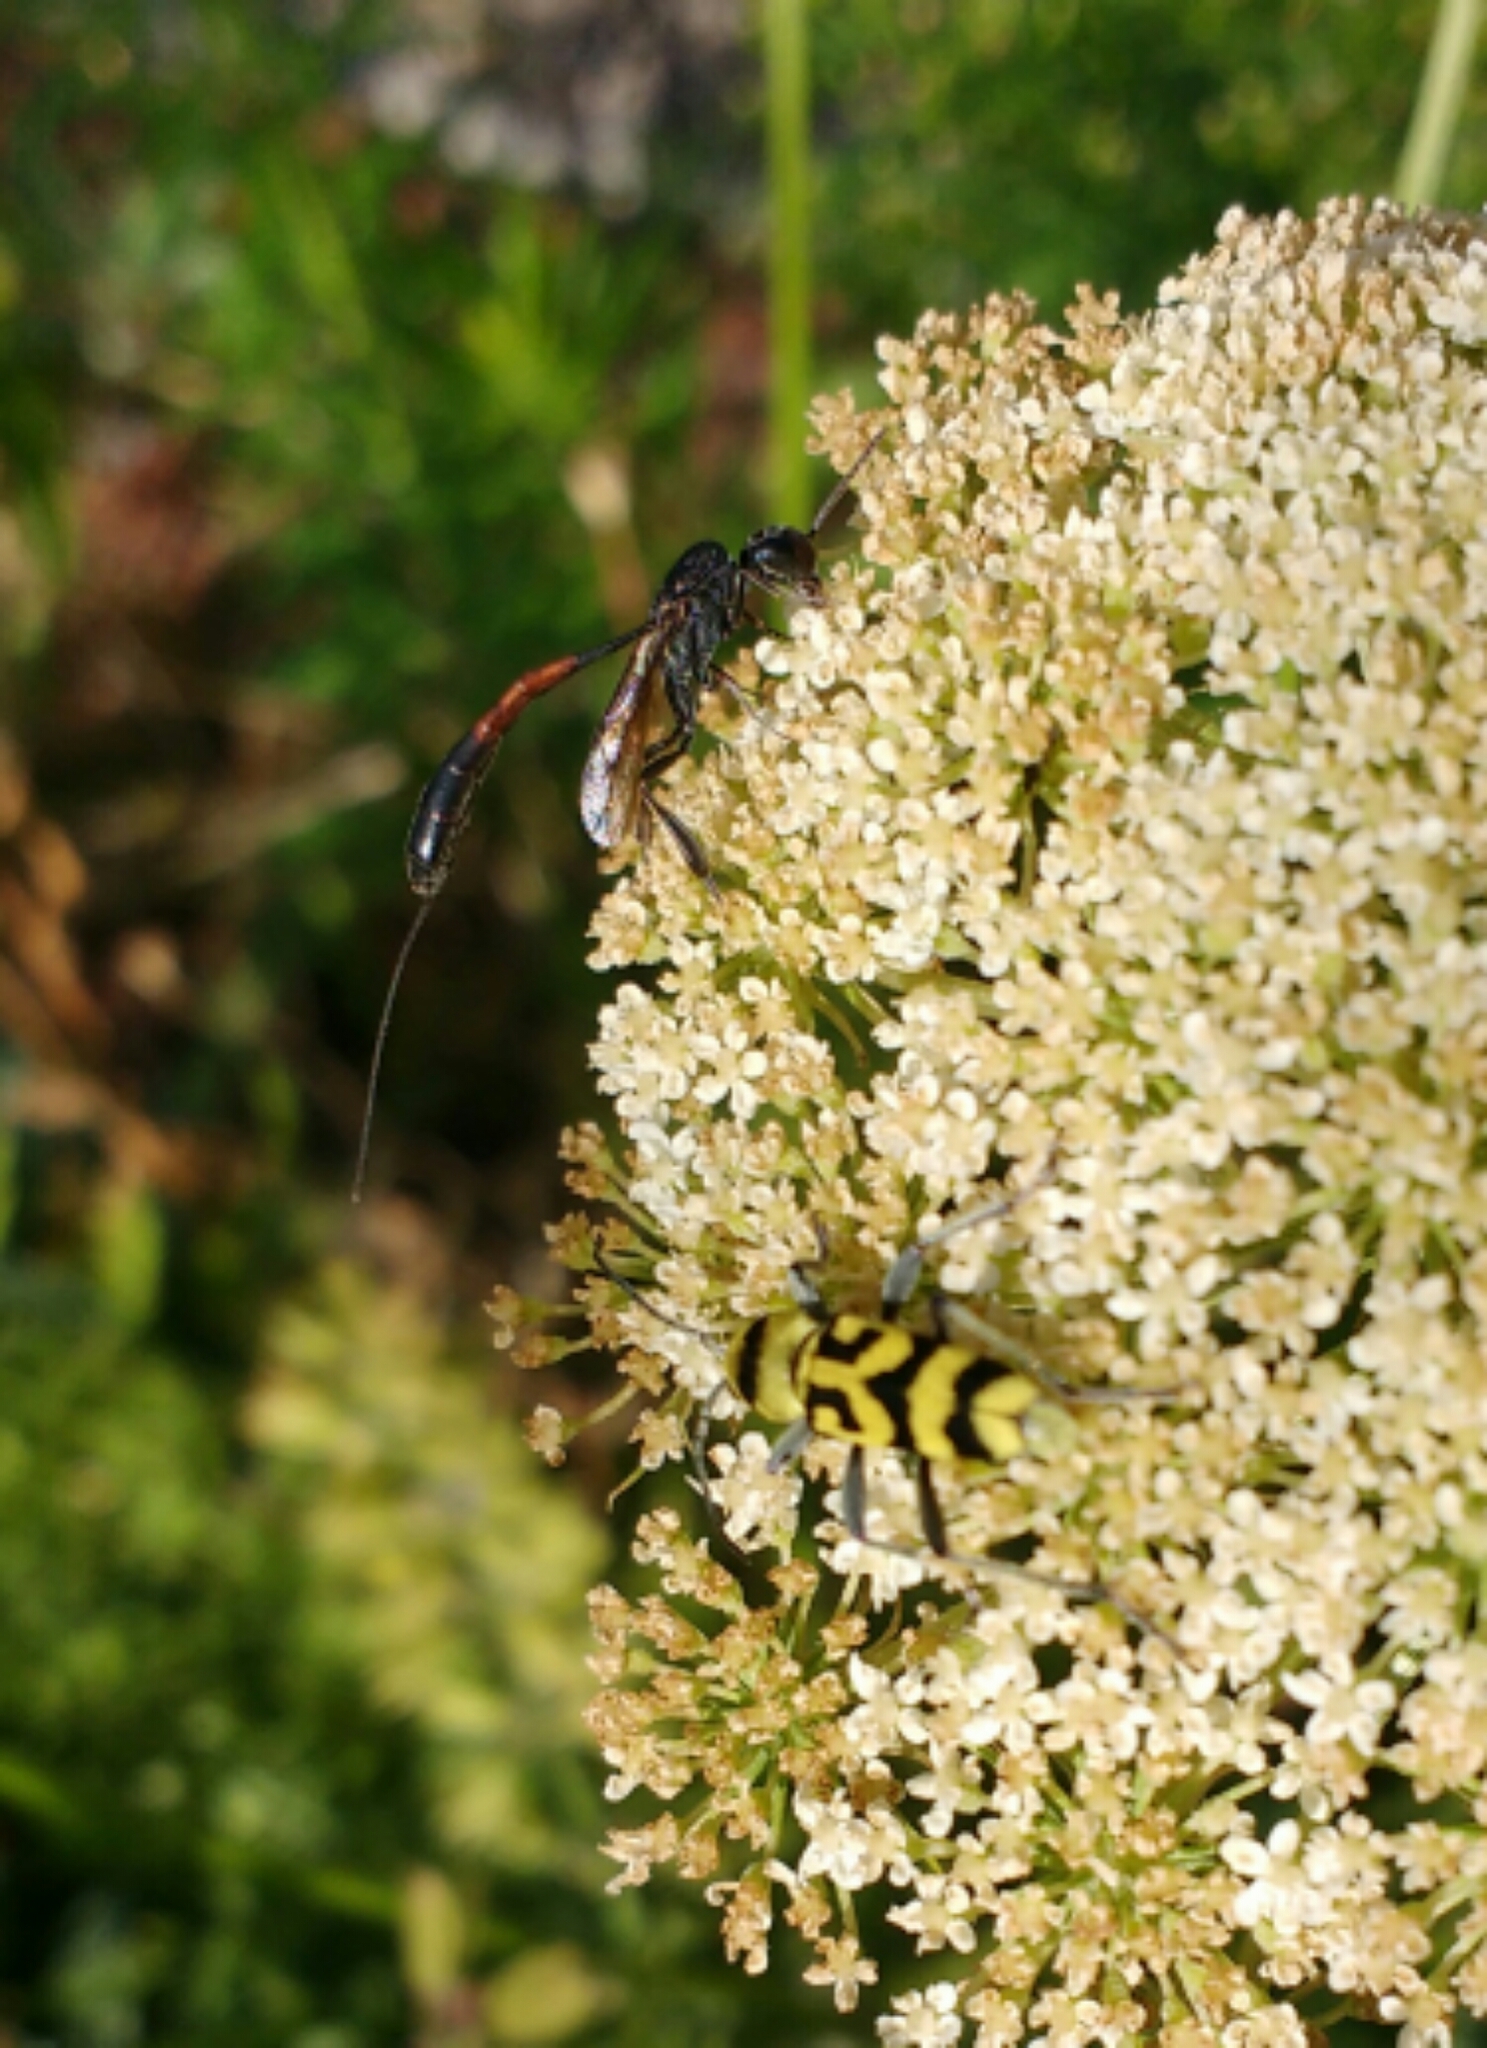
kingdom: Animalia
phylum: Arthropoda
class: Insecta
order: Hymenoptera
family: Gasteruptiidae
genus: Gasteruption
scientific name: Gasteruption
